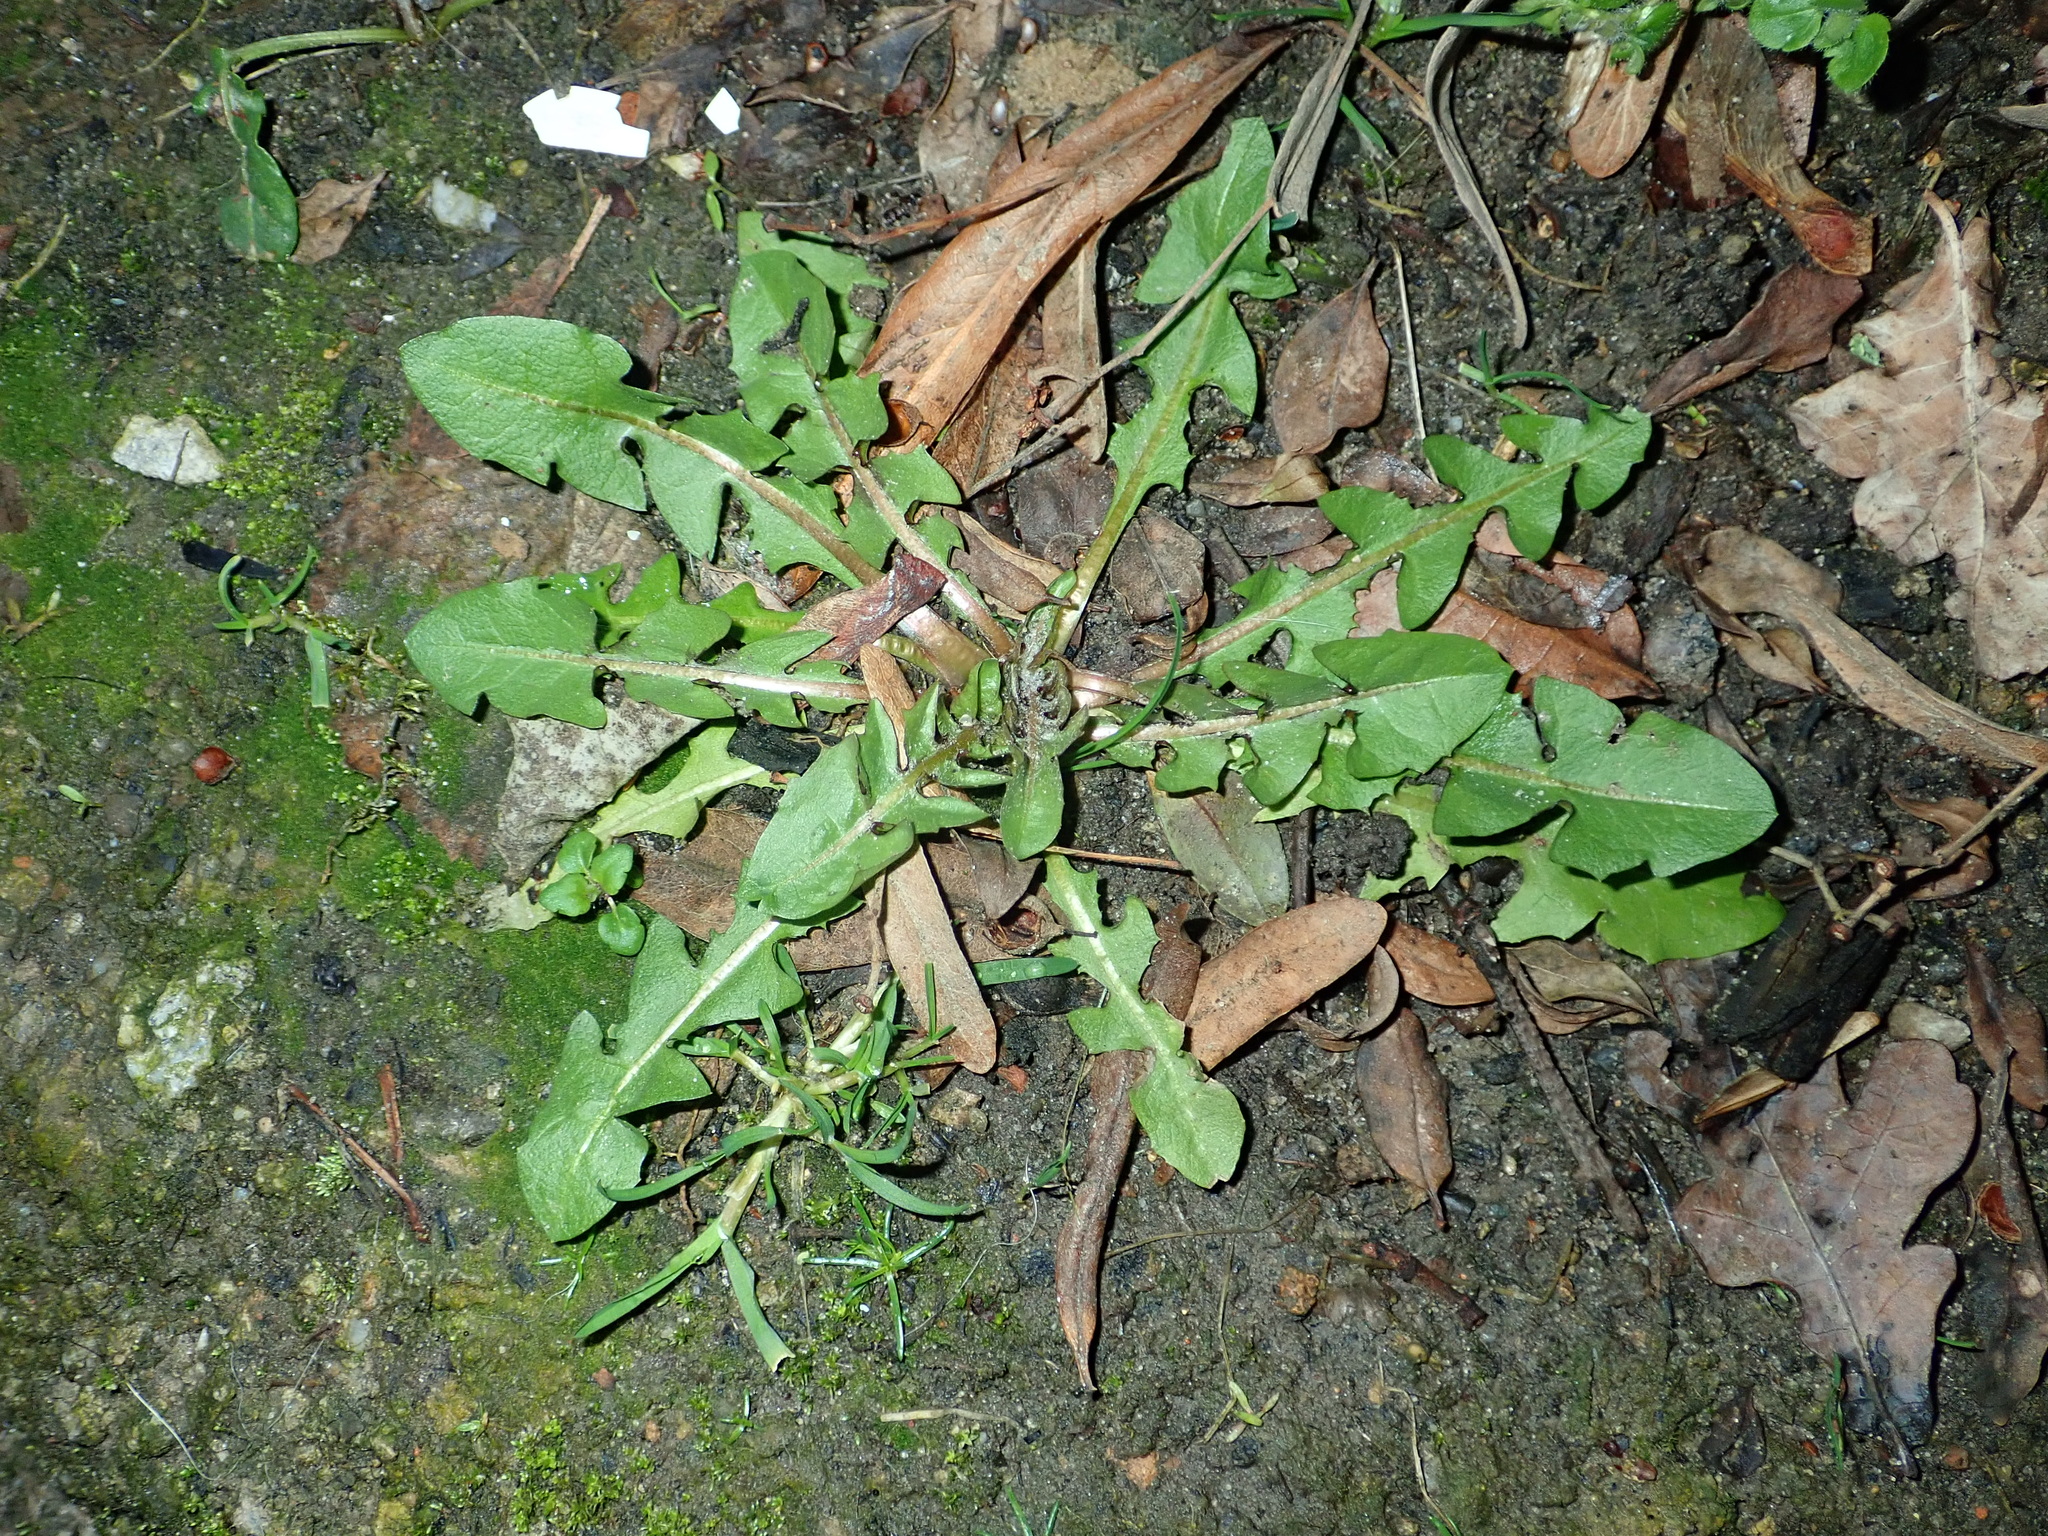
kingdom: Plantae
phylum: Tracheophyta
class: Magnoliopsida
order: Asterales
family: Asteraceae
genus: Taraxacum
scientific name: Taraxacum officinale
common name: Common dandelion
